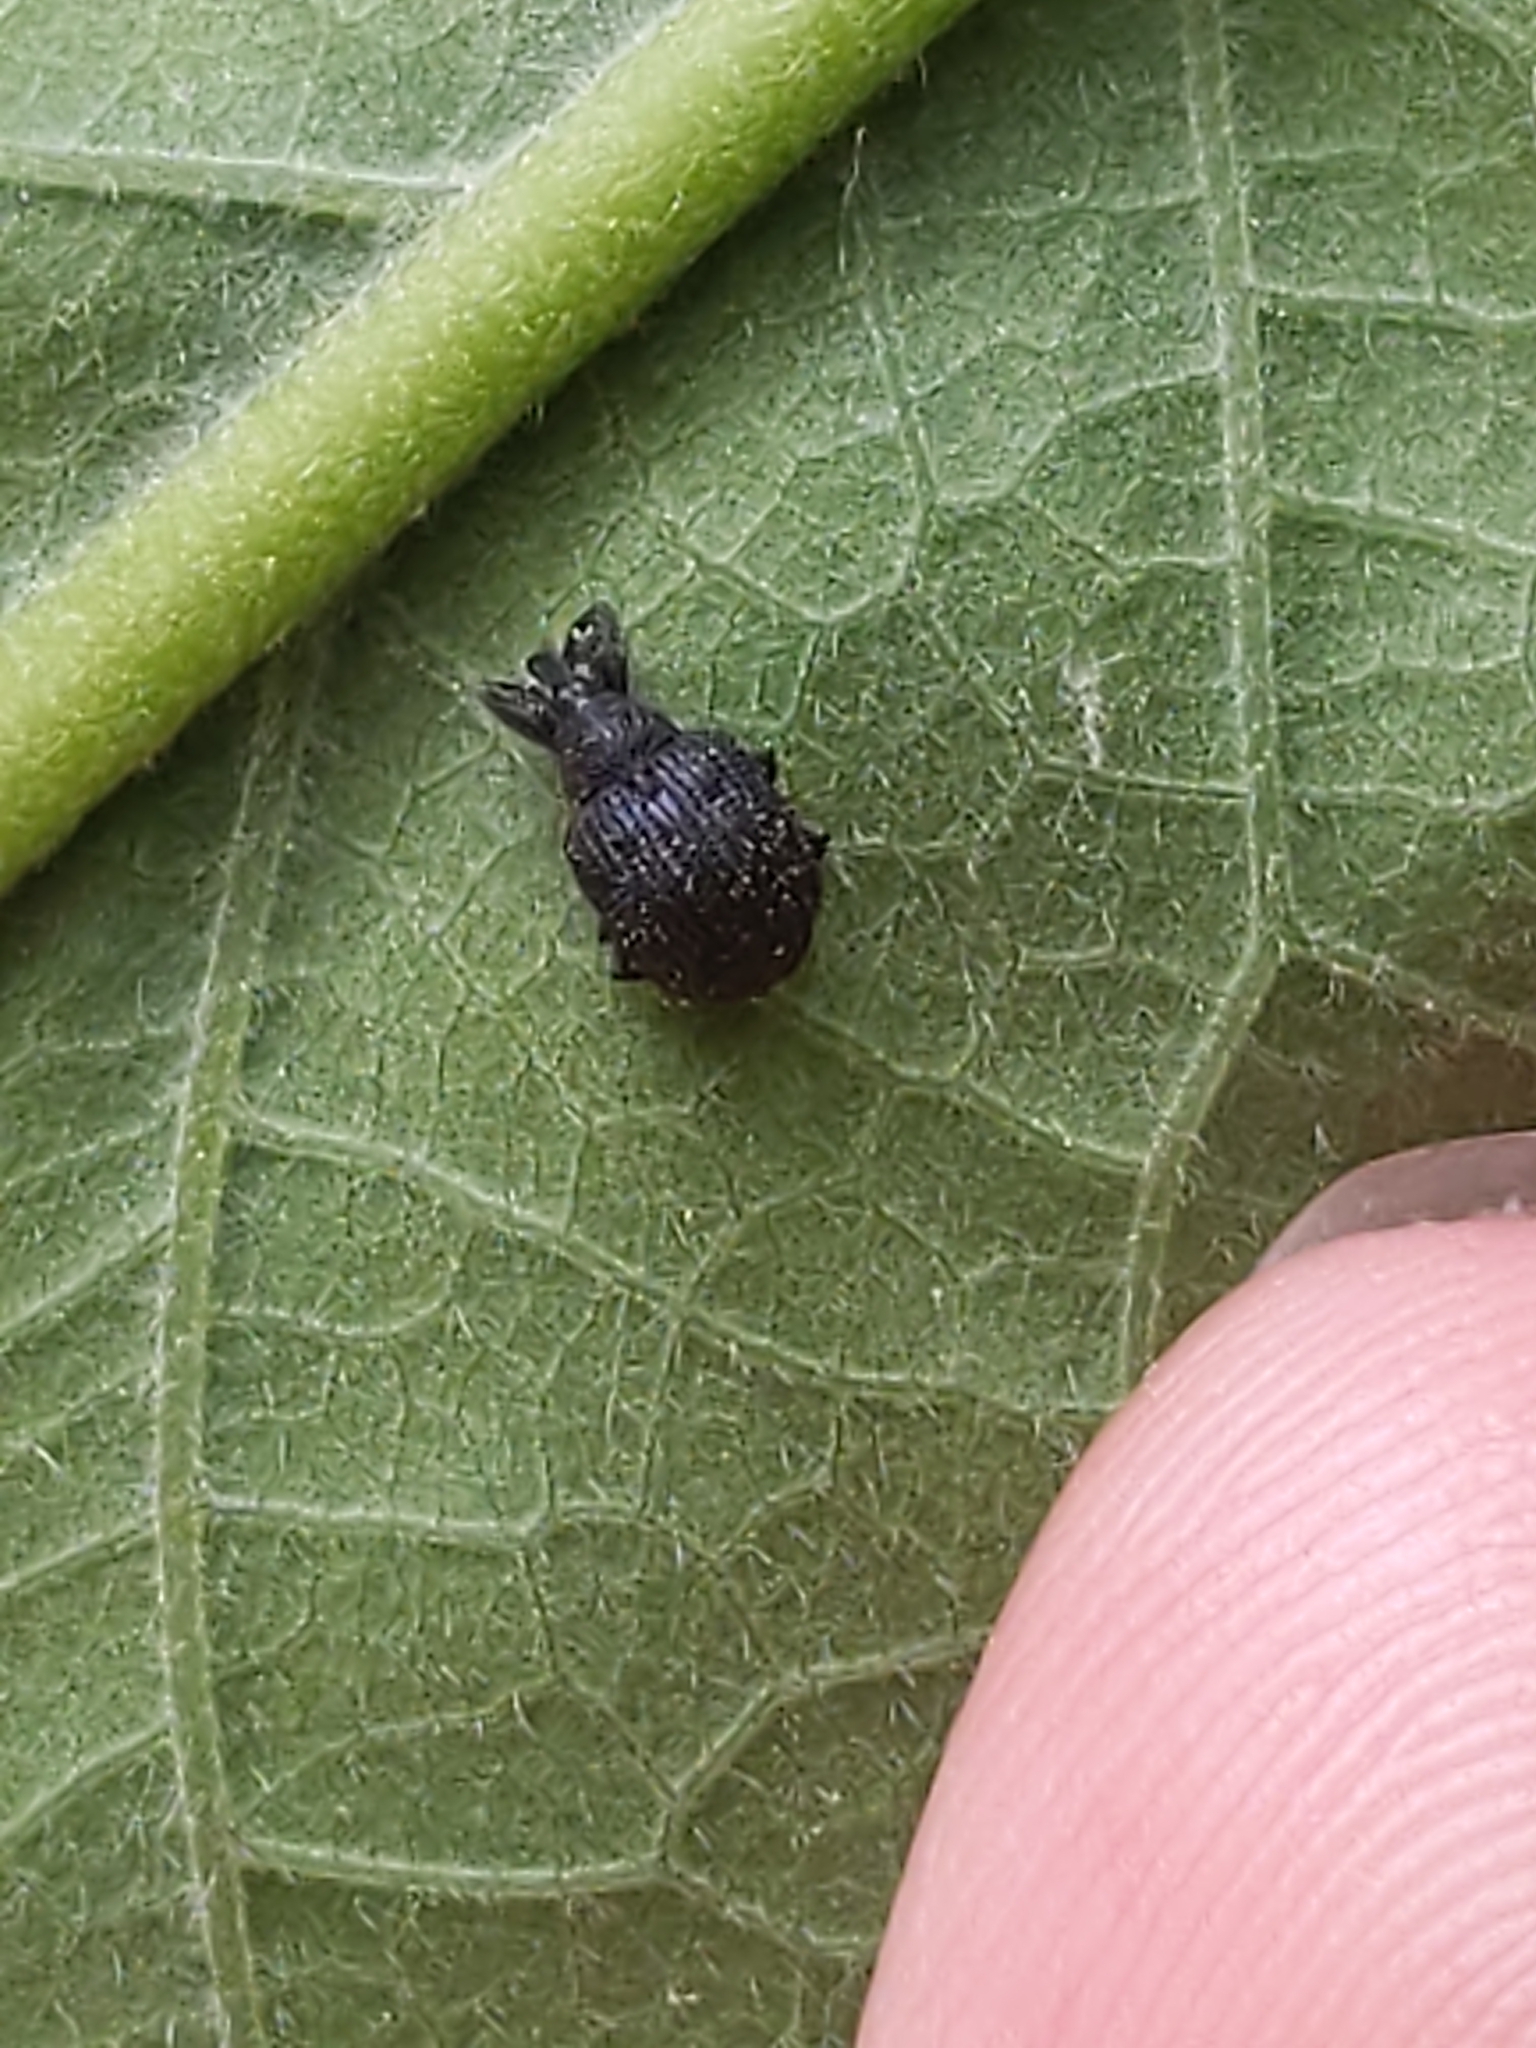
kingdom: Animalia
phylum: Arthropoda
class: Insecta
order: Coleoptera
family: Curculionidae
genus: Odontopus
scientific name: Odontopus calceatus
